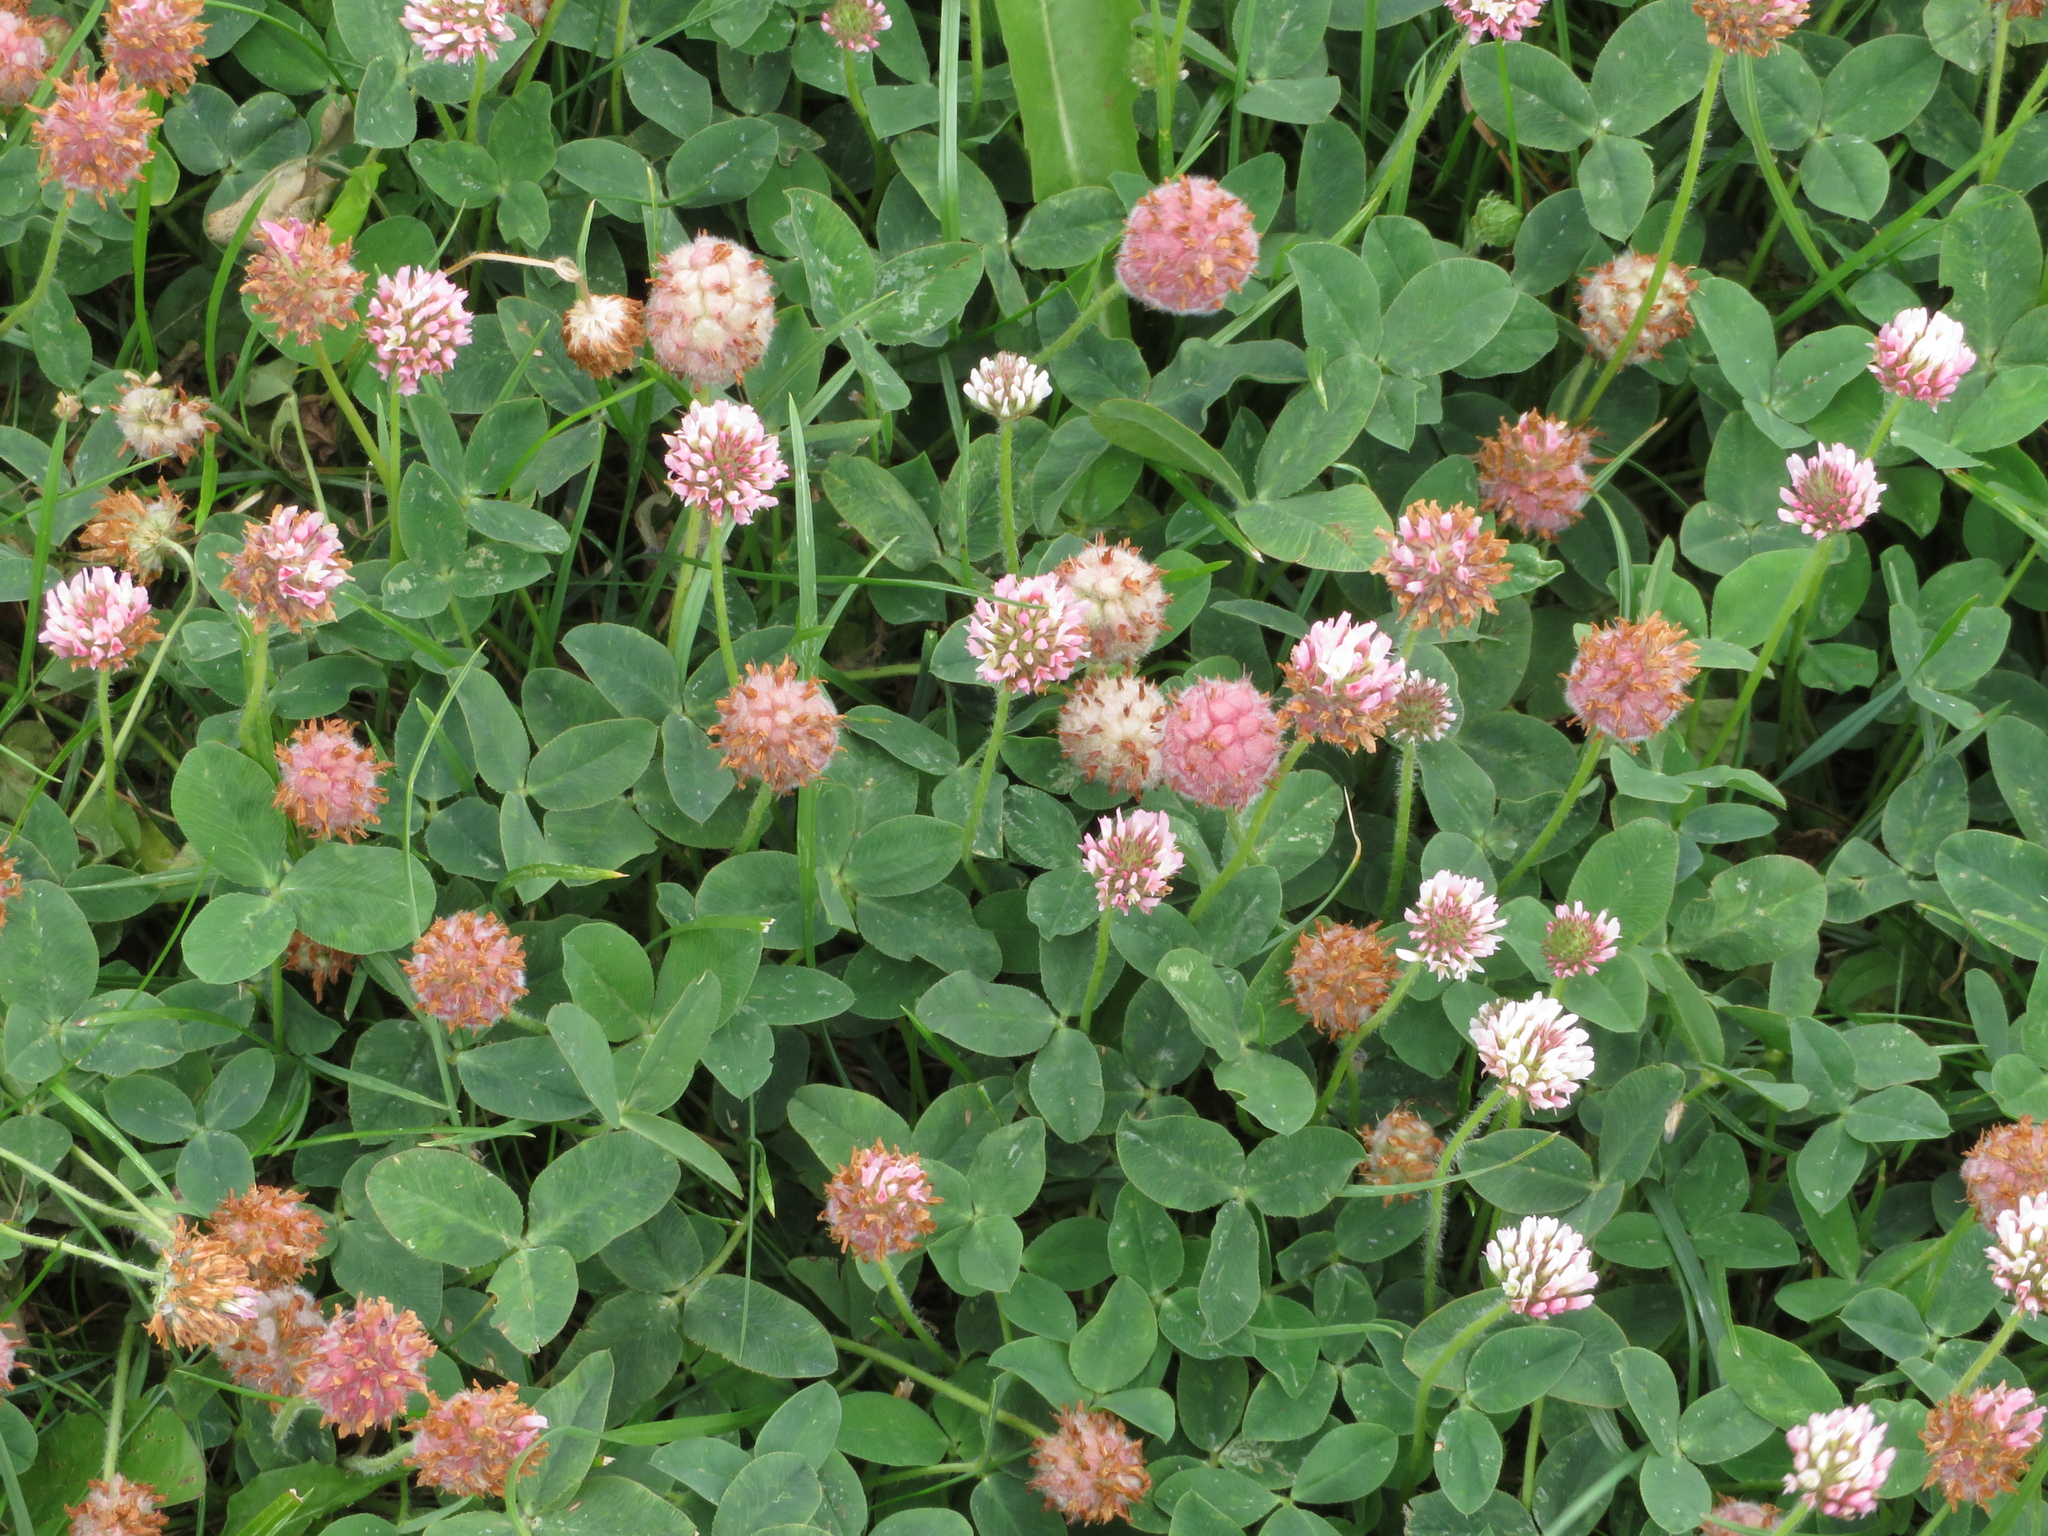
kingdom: Plantae
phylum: Tracheophyta
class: Magnoliopsida
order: Fabales
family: Fabaceae
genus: Trifolium
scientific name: Trifolium fragiferum
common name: Strawberry clover
